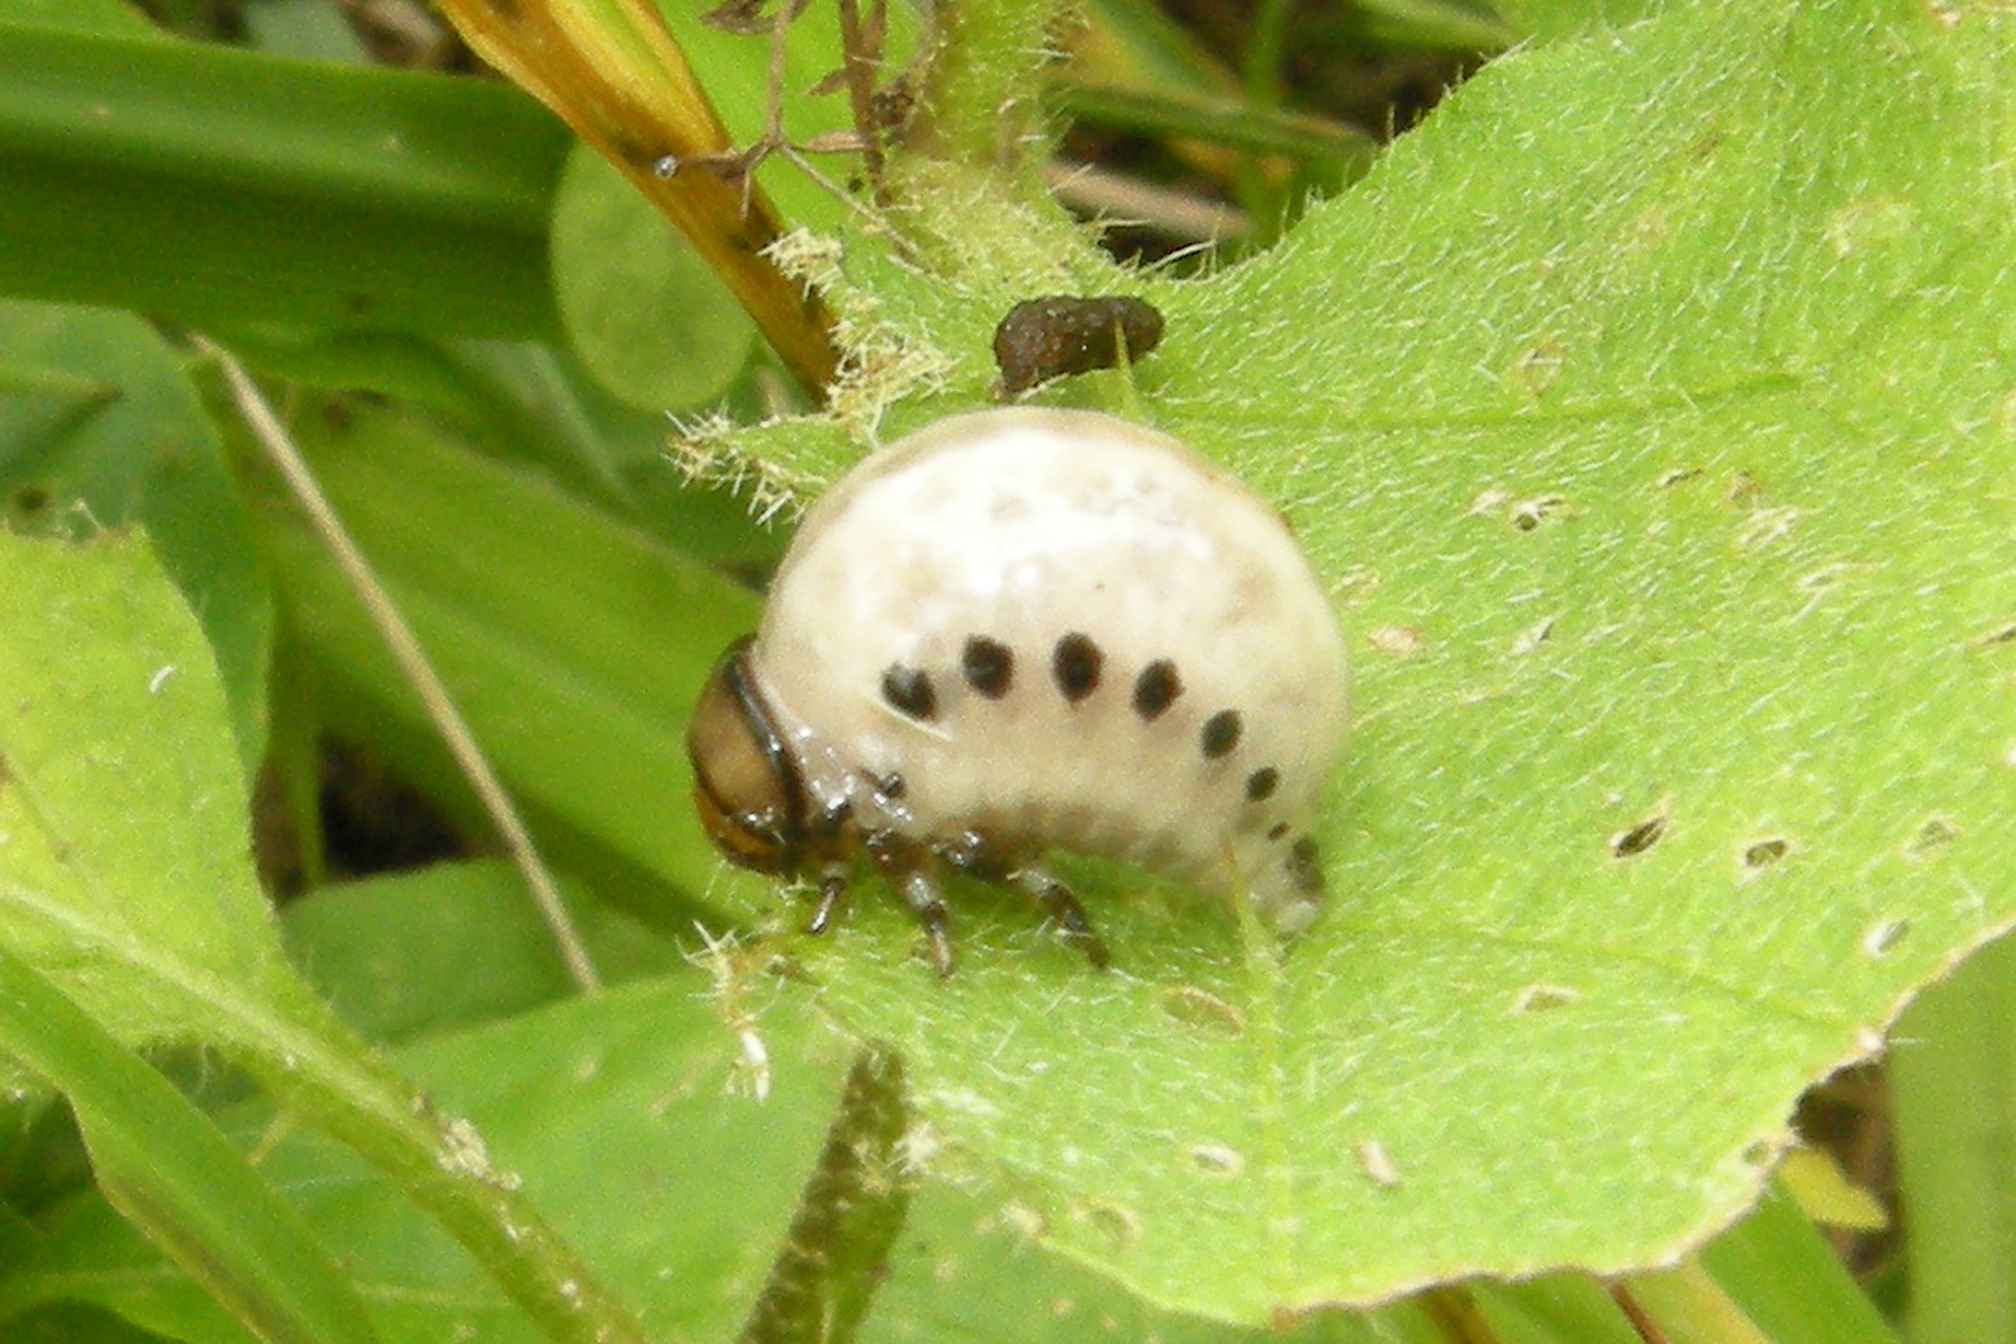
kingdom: Animalia
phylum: Arthropoda
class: Insecta
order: Coleoptera
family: Chrysomelidae
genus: Leptinotarsa
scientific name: Leptinotarsa juncta
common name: False potato beetle
